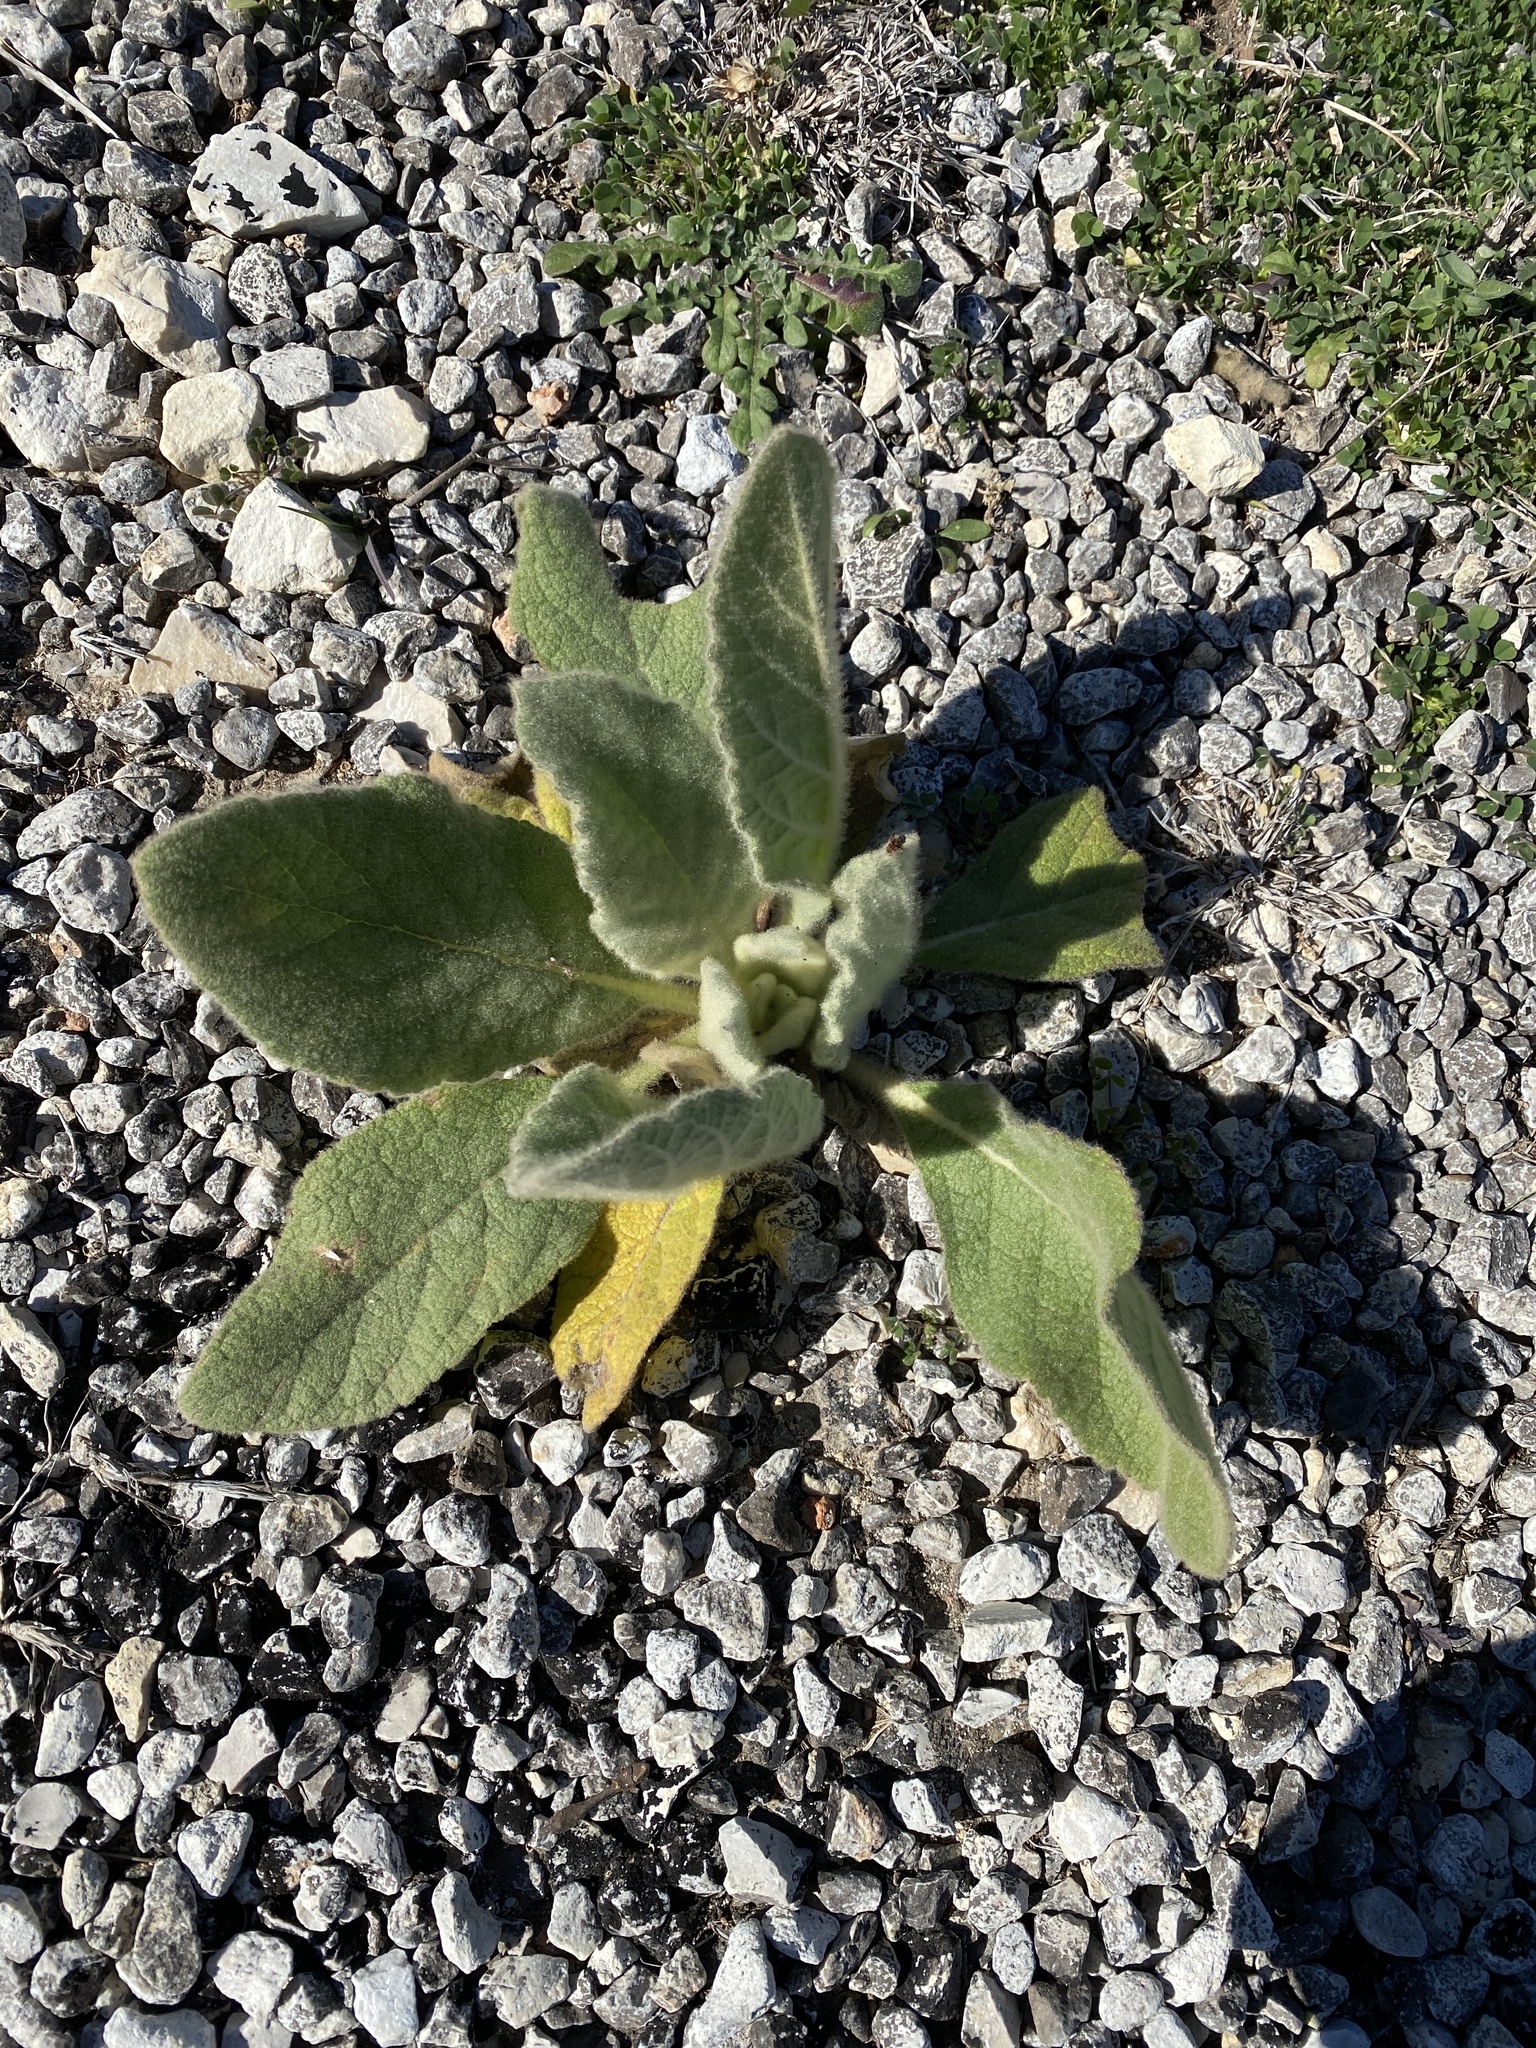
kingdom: Plantae
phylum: Tracheophyta
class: Magnoliopsida
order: Lamiales
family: Scrophulariaceae
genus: Verbascum
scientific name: Verbascum thapsus
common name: Common mullein
